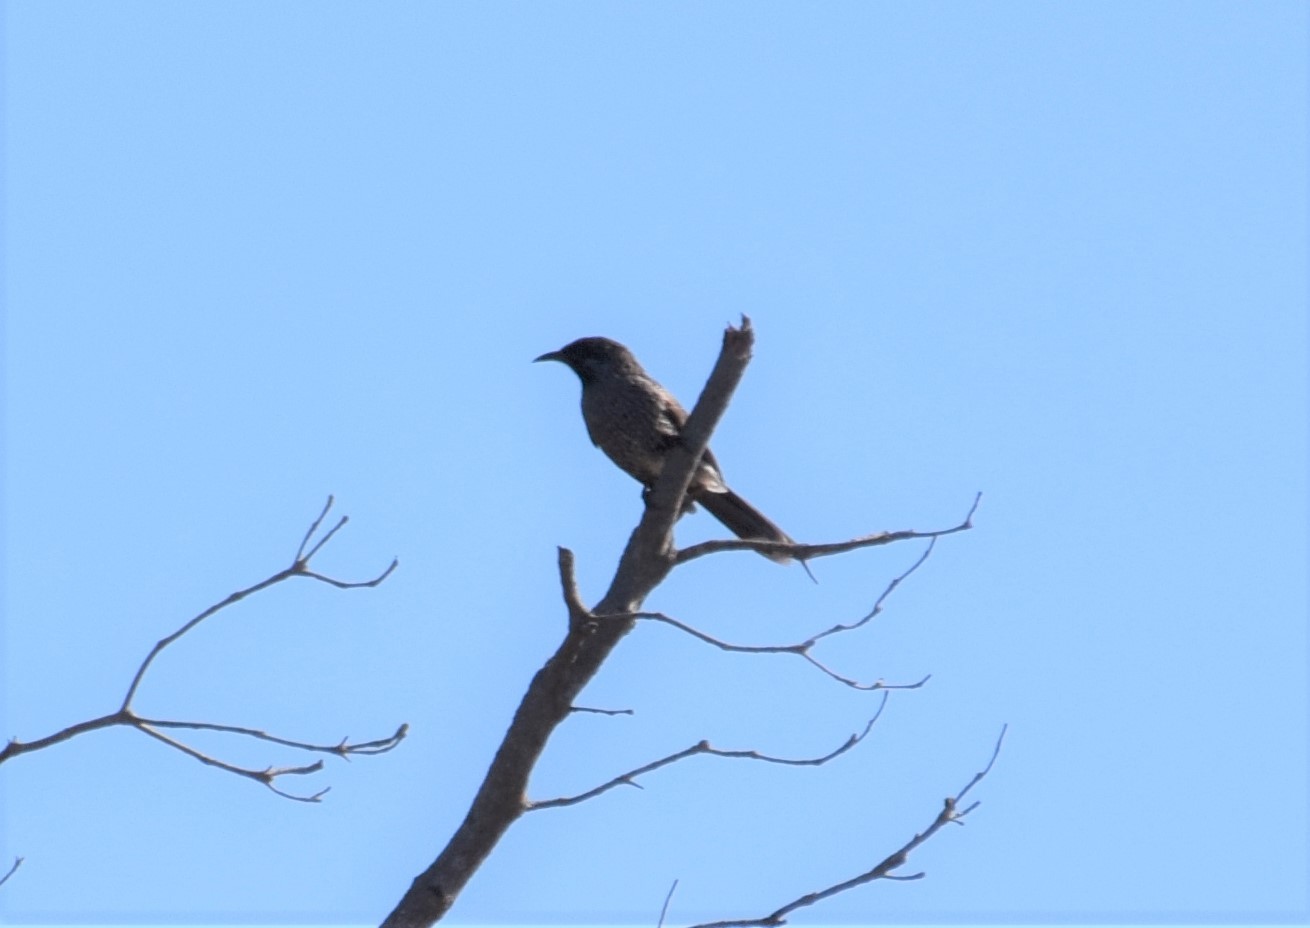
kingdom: Animalia
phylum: Chordata
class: Aves
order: Passeriformes
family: Meliphagidae
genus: Anthochaera
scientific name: Anthochaera chrysoptera
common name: Little wattlebird
